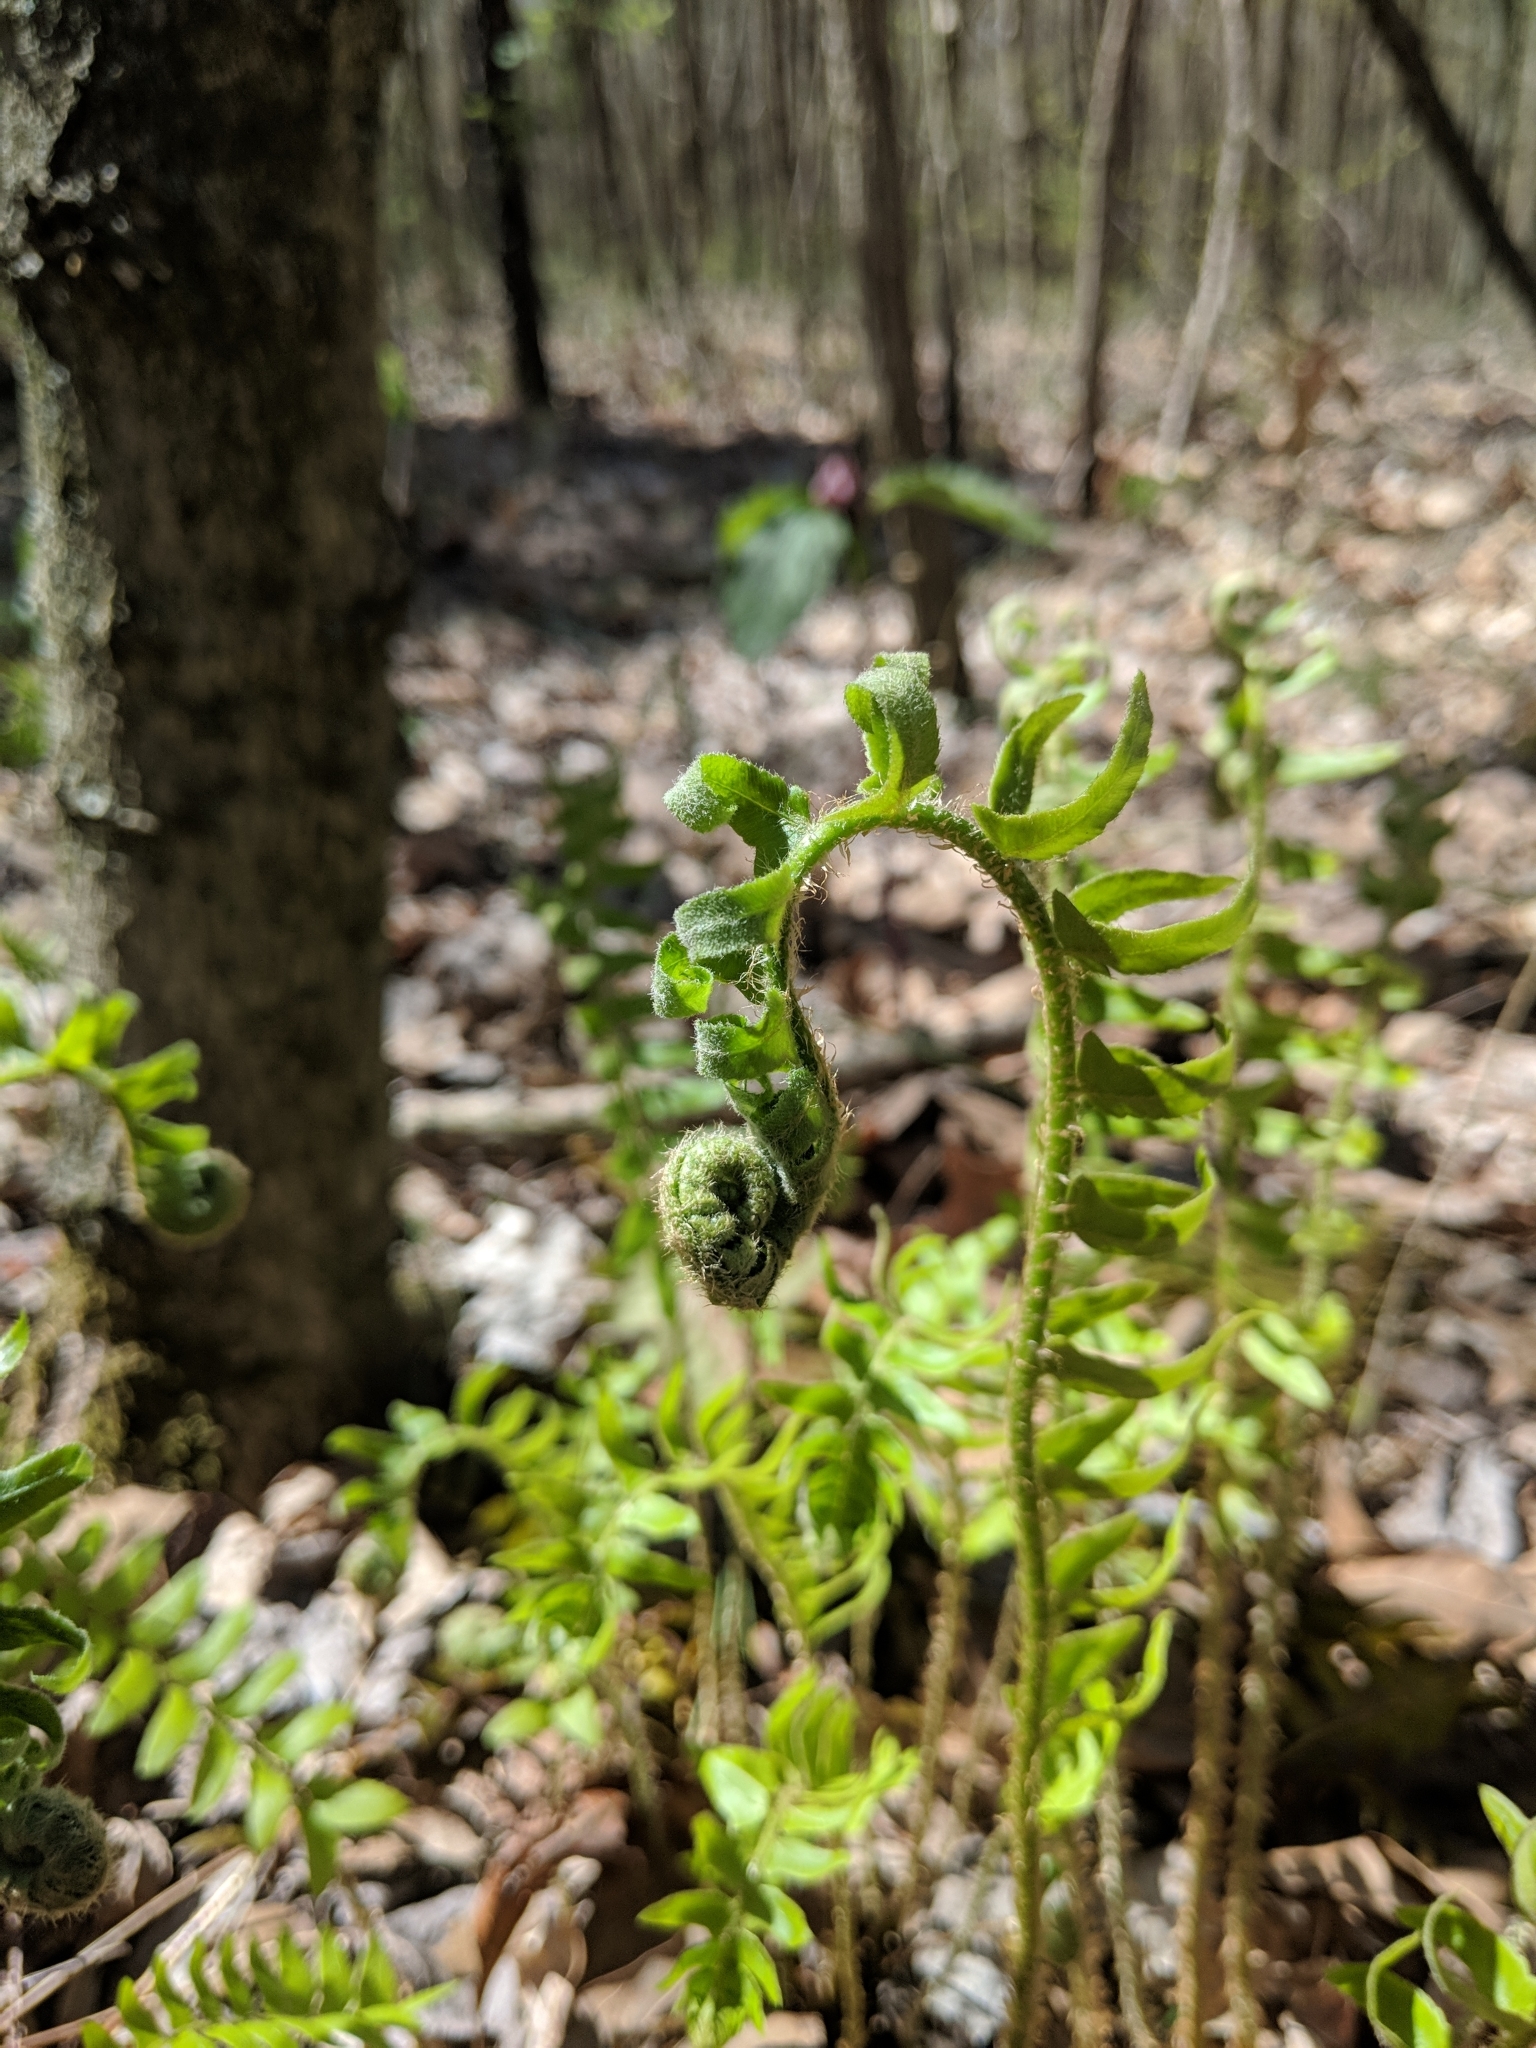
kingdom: Plantae
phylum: Tracheophyta
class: Polypodiopsida
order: Polypodiales
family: Dryopteridaceae
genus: Polystichum
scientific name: Polystichum acrostichoides
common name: Christmas fern
